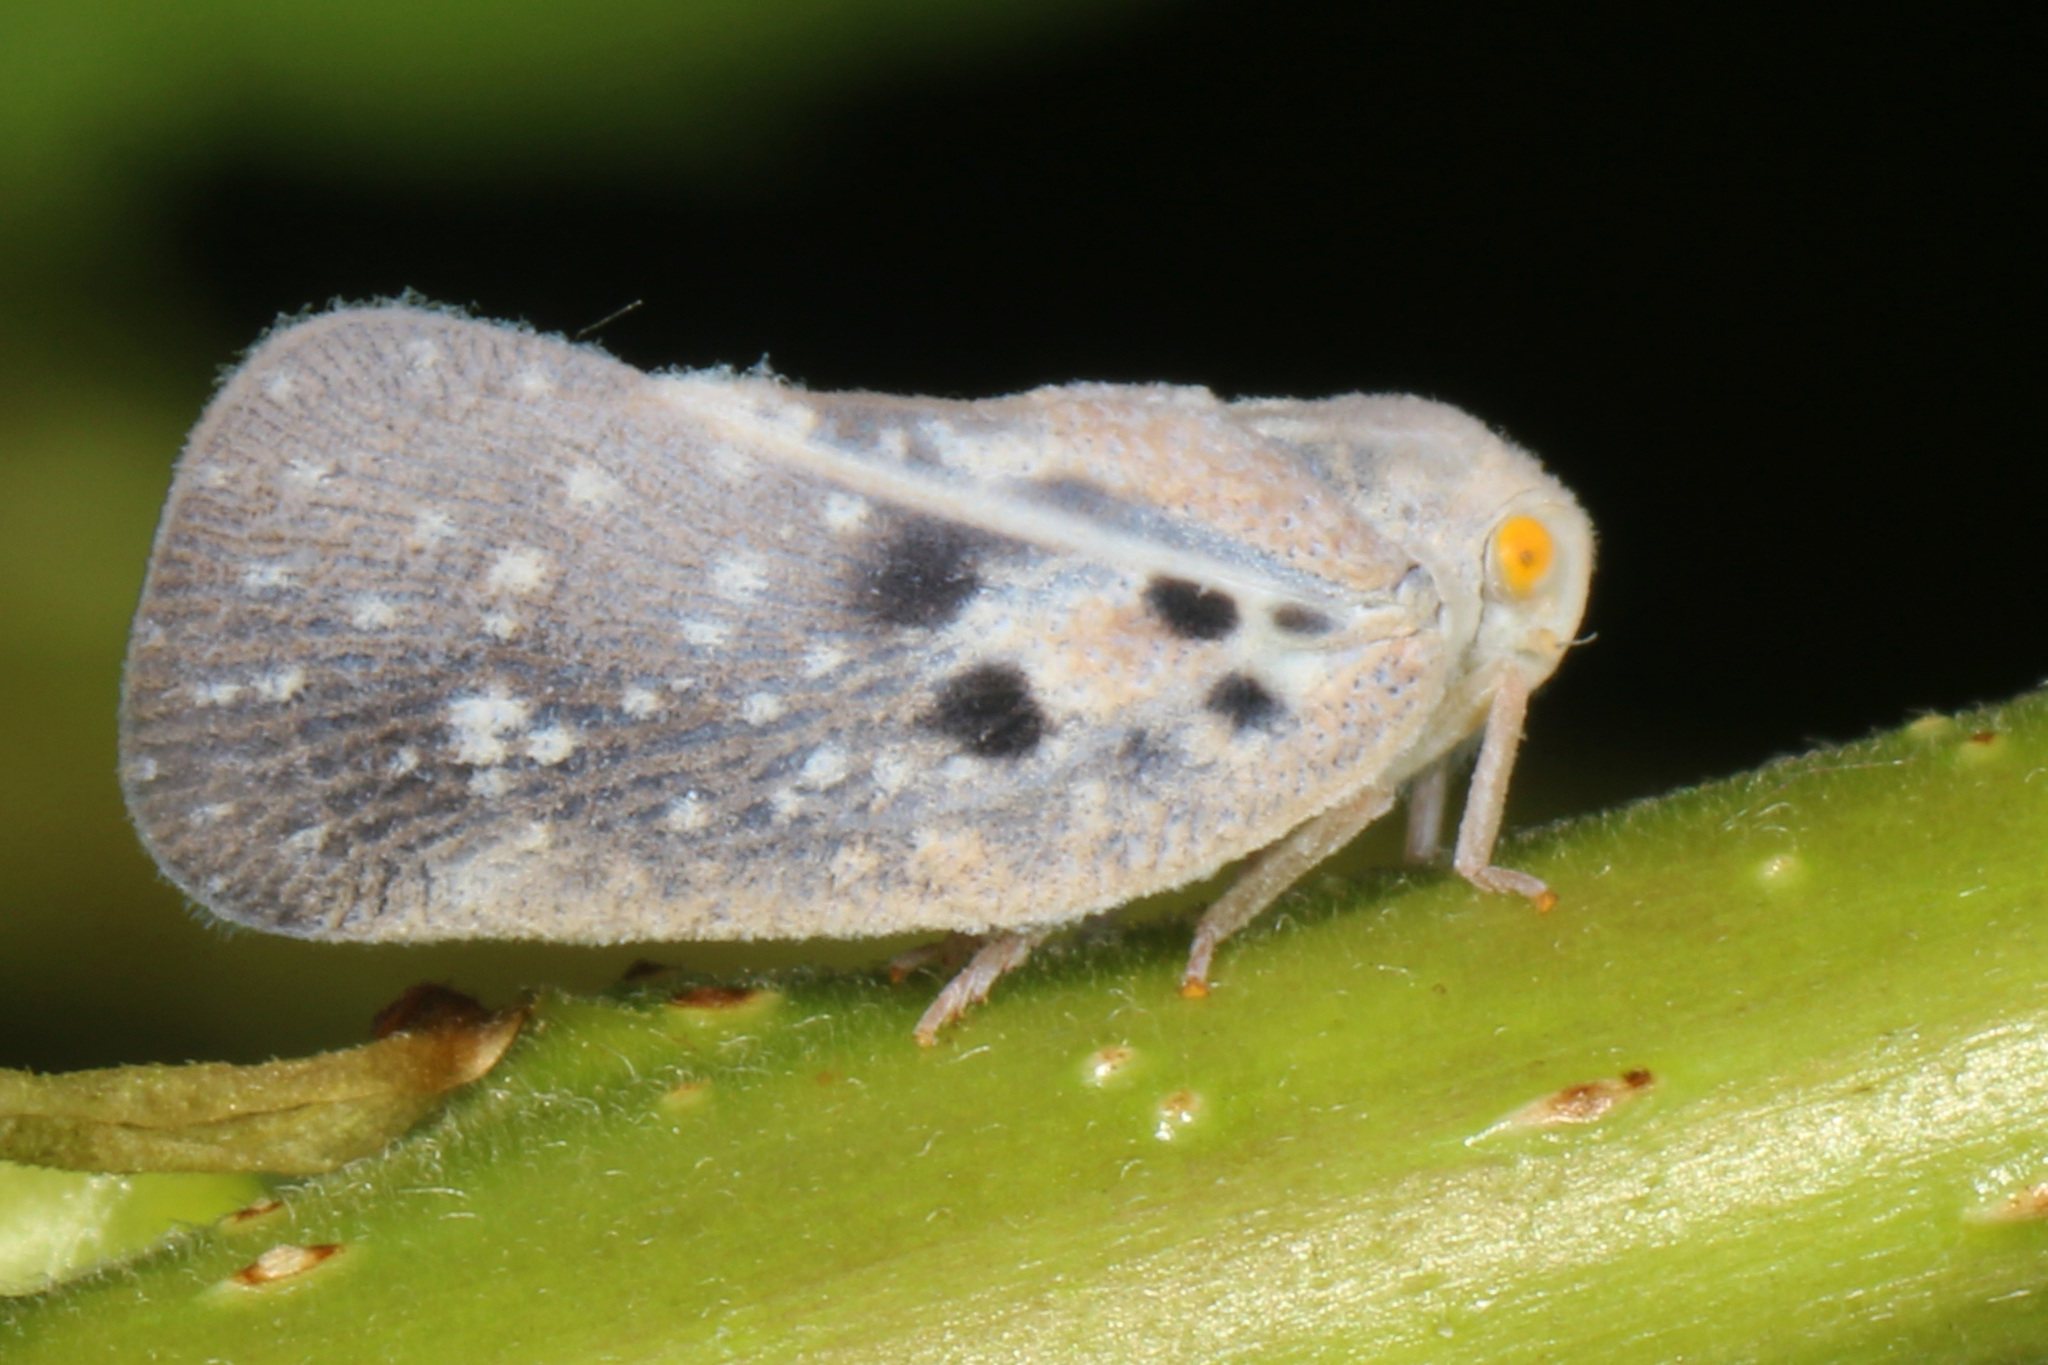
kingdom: Animalia
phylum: Arthropoda
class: Insecta
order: Hemiptera
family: Flatidae
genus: Metcalfa
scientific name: Metcalfa pruinosa
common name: Citrus flatid planthopper
